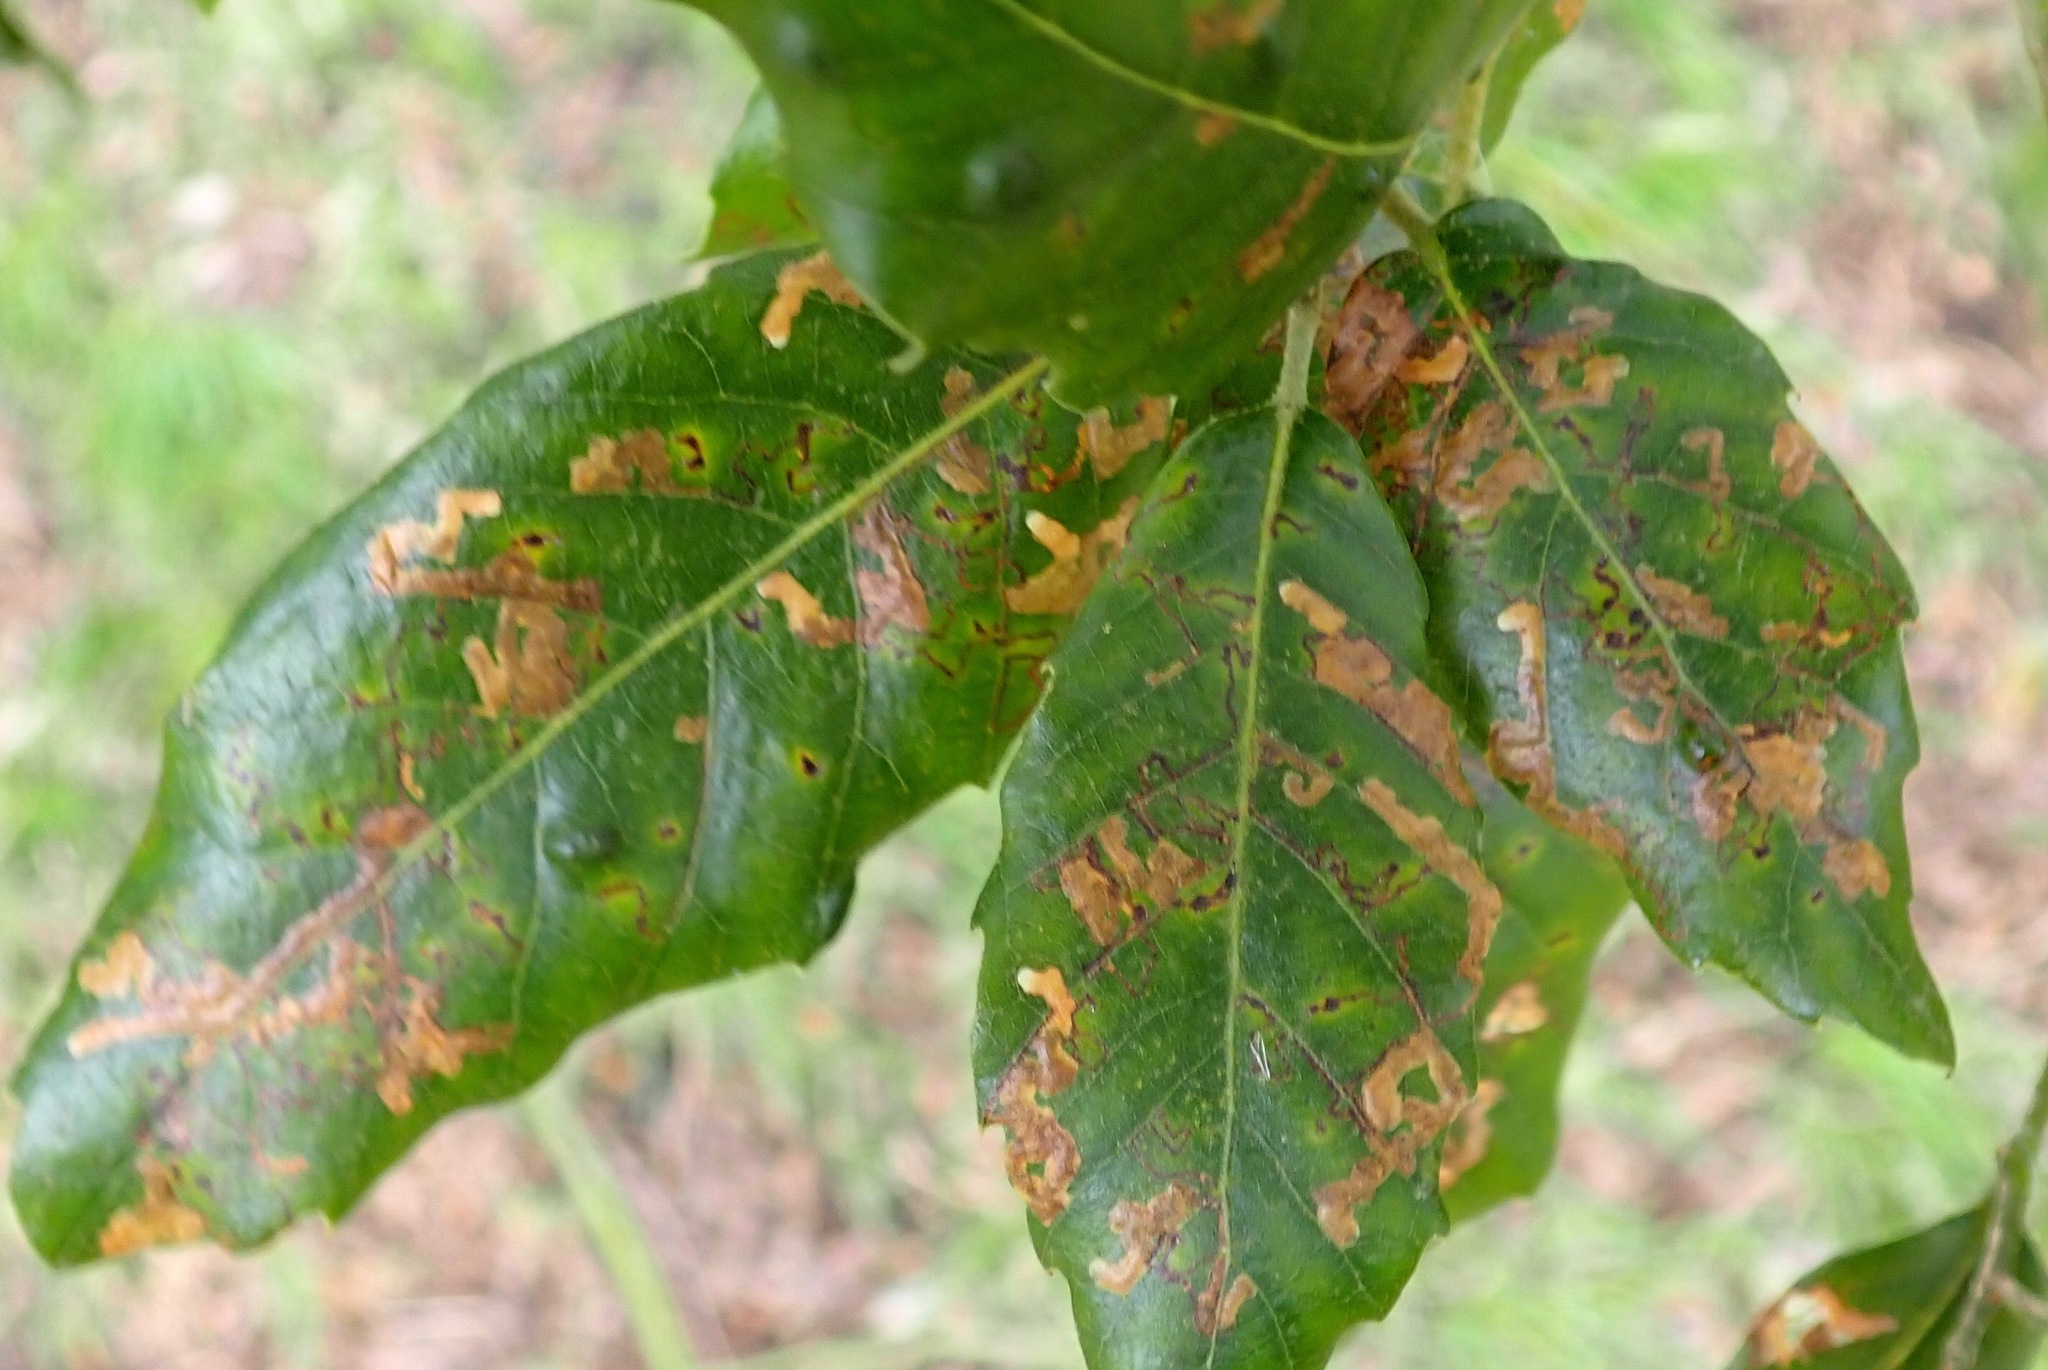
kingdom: Animalia
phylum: Arthropoda
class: Insecta
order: Lepidoptera
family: Nepticulidae
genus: Ectoedemia
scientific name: Ectoedemia heringella
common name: New holm-oak pigmy
